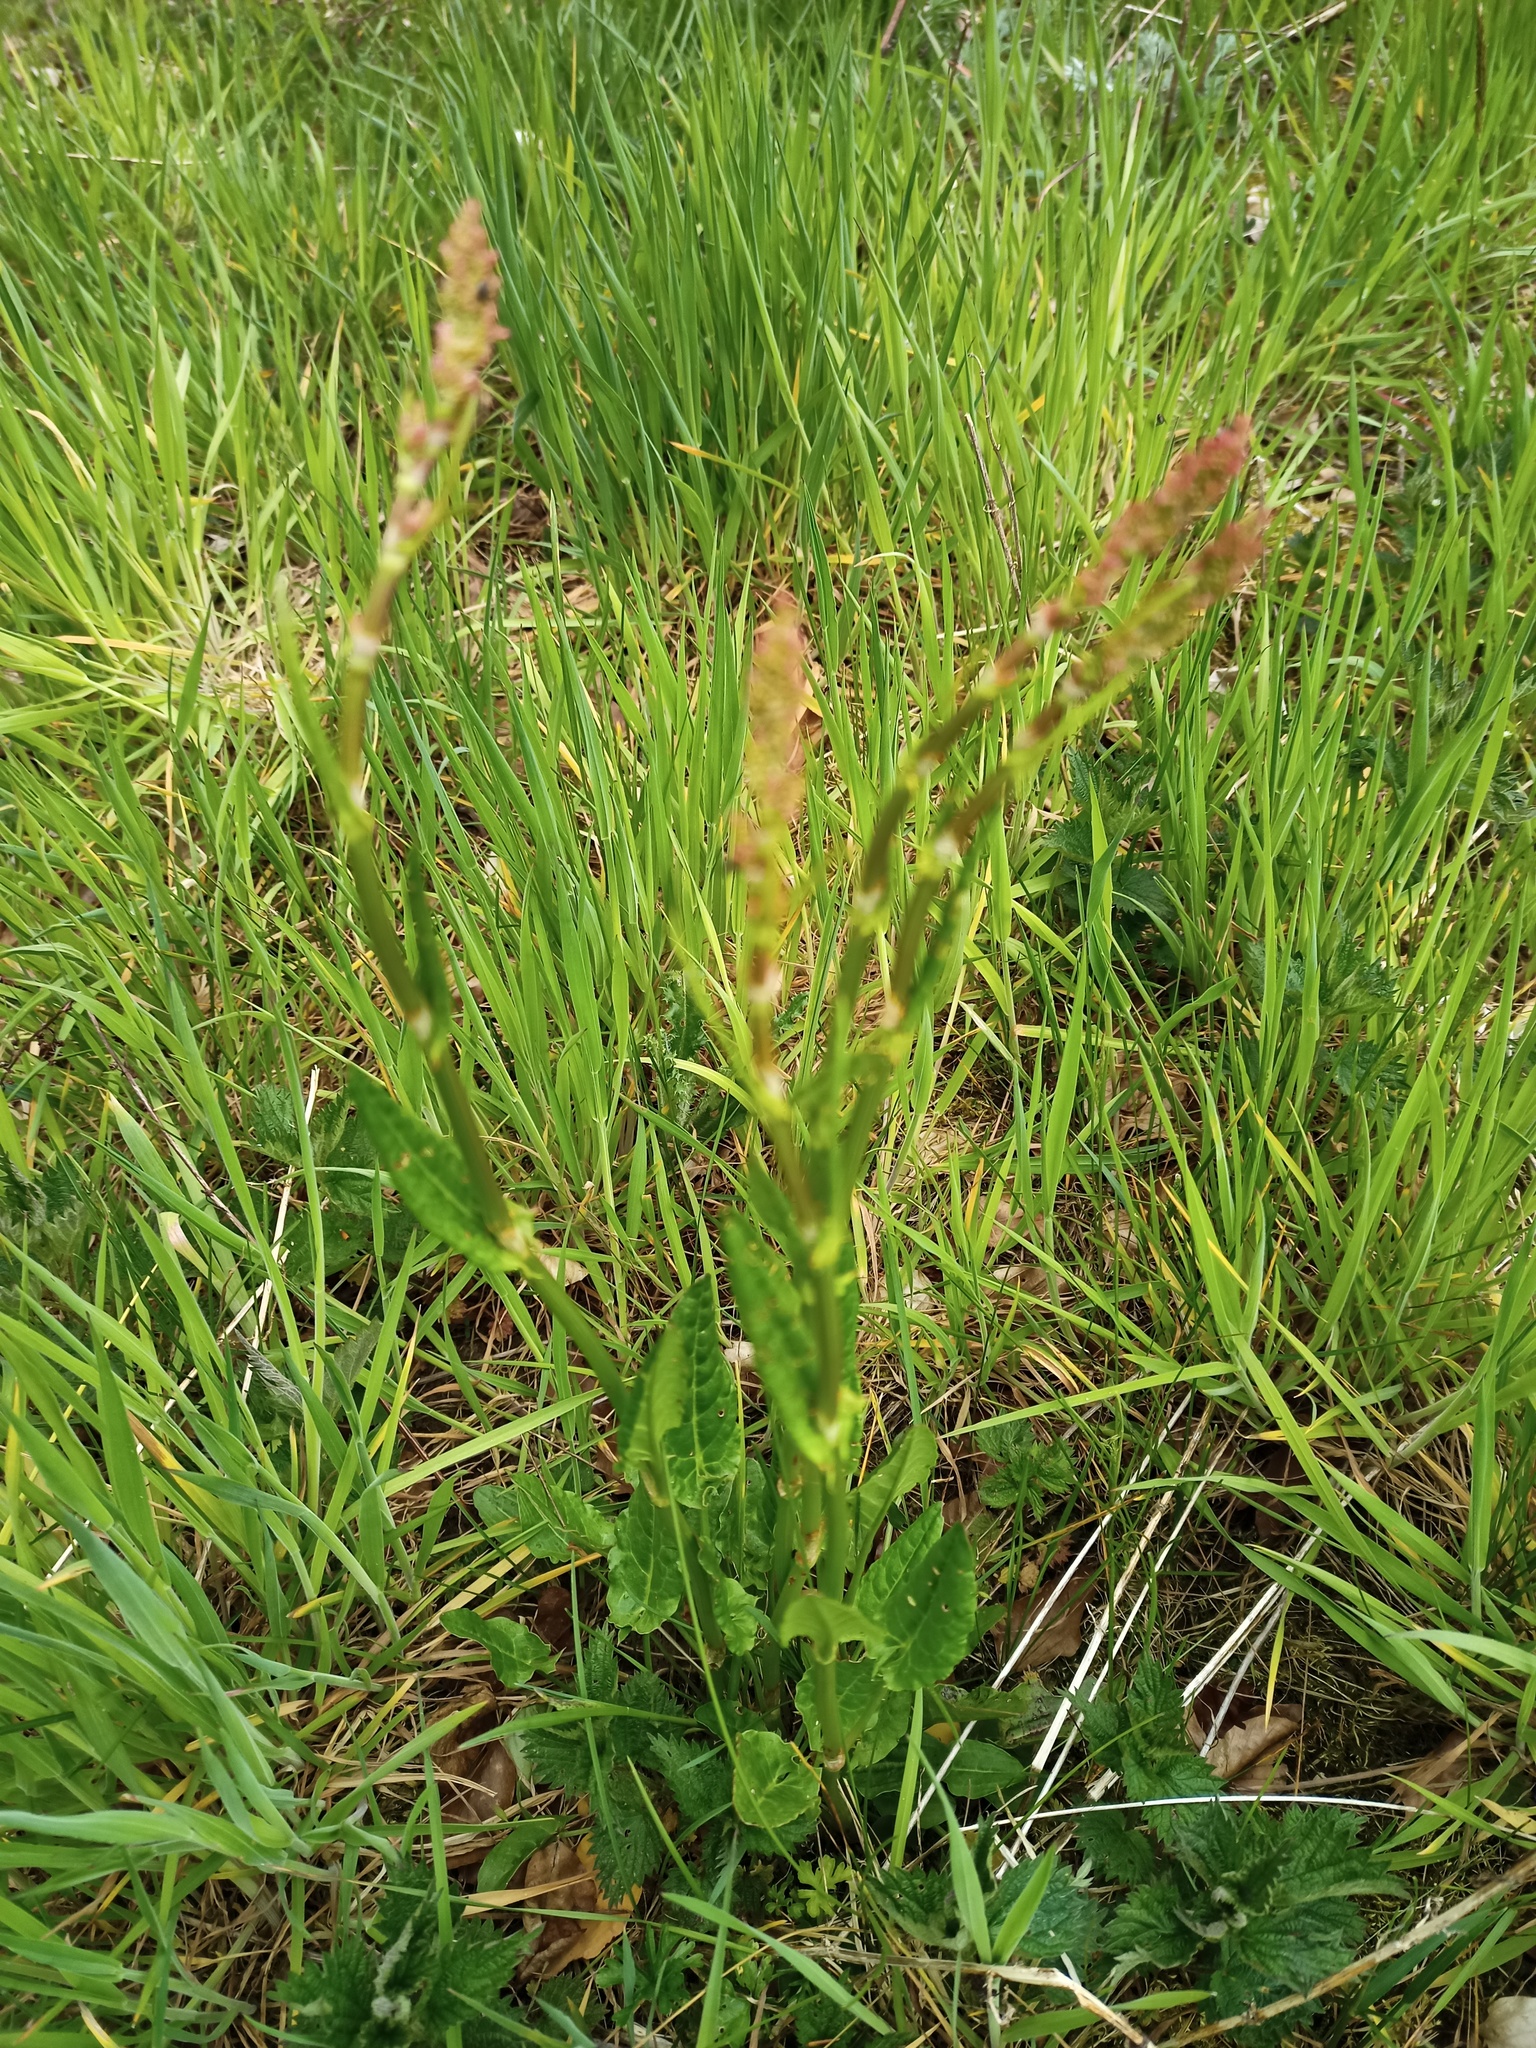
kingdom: Plantae
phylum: Tracheophyta
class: Magnoliopsida
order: Caryophyllales
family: Polygonaceae
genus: Rumex
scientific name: Rumex acetosa
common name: Garden sorrel
